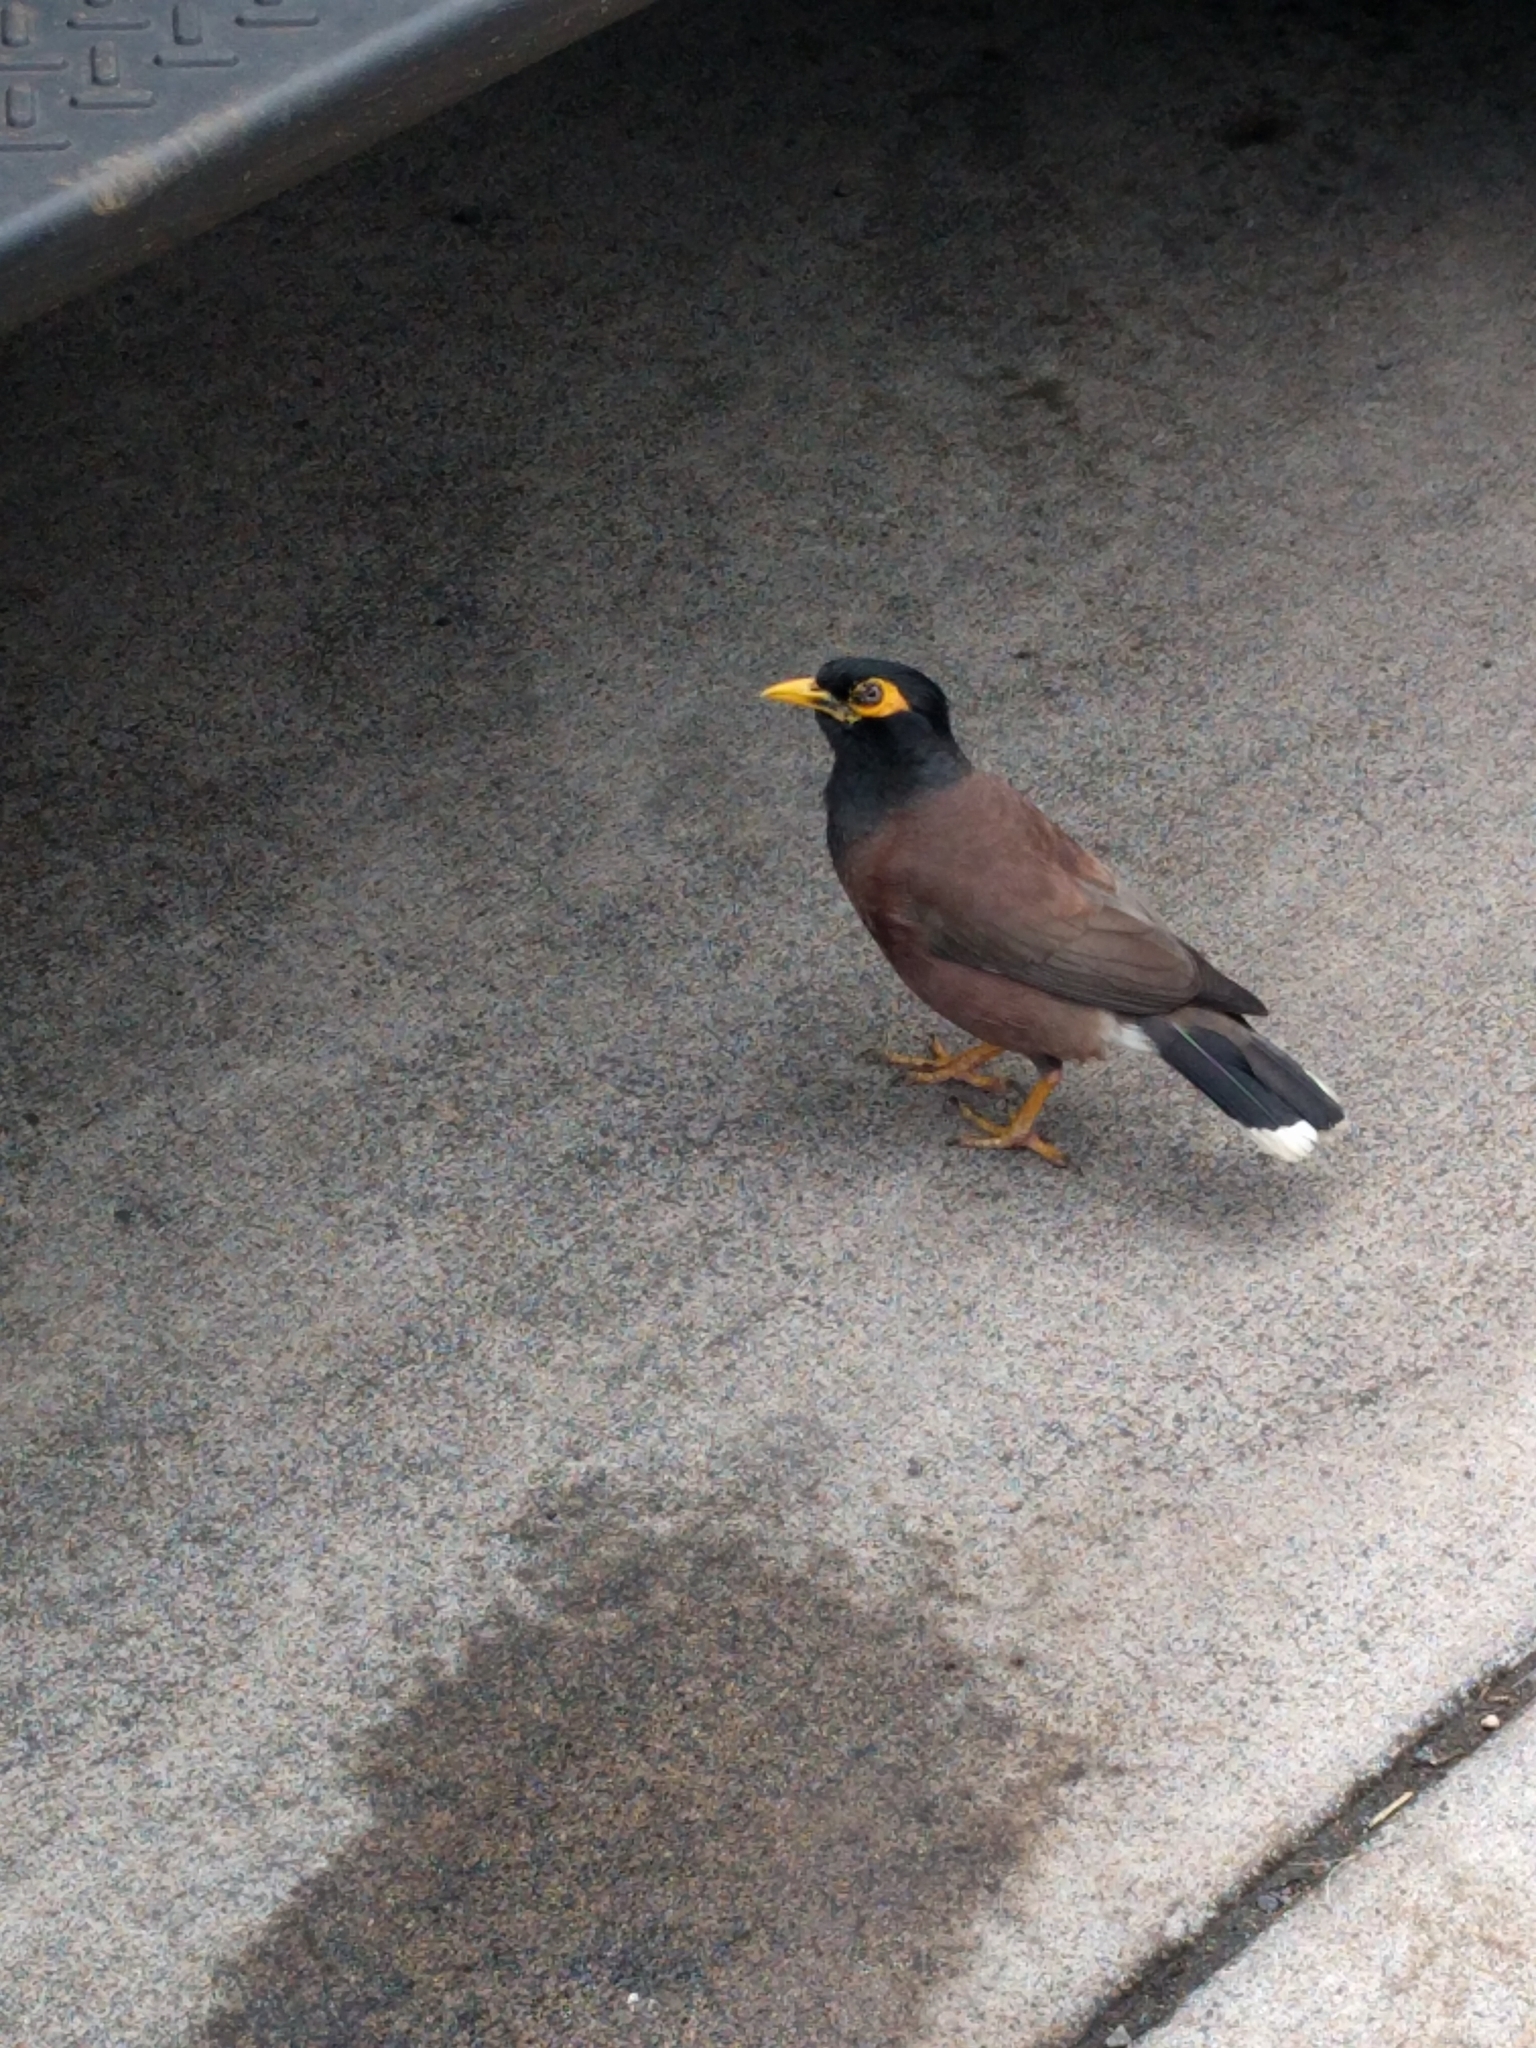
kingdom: Animalia
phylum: Chordata
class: Aves
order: Passeriformes
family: Sturnidae
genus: Acridotheres
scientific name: Acridotheres tristis
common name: Common myna
